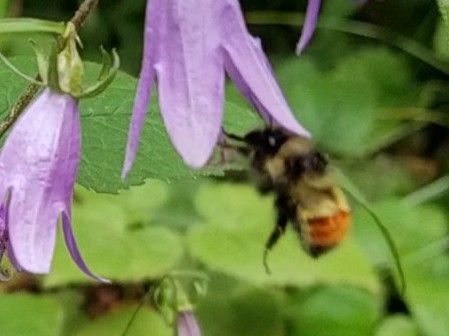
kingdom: Animalia
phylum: Arthropoda
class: Insecta
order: Hymenoptera
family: Apidae
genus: Bombus
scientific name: Bombus flavifrons
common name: Yellow head bumble bee
